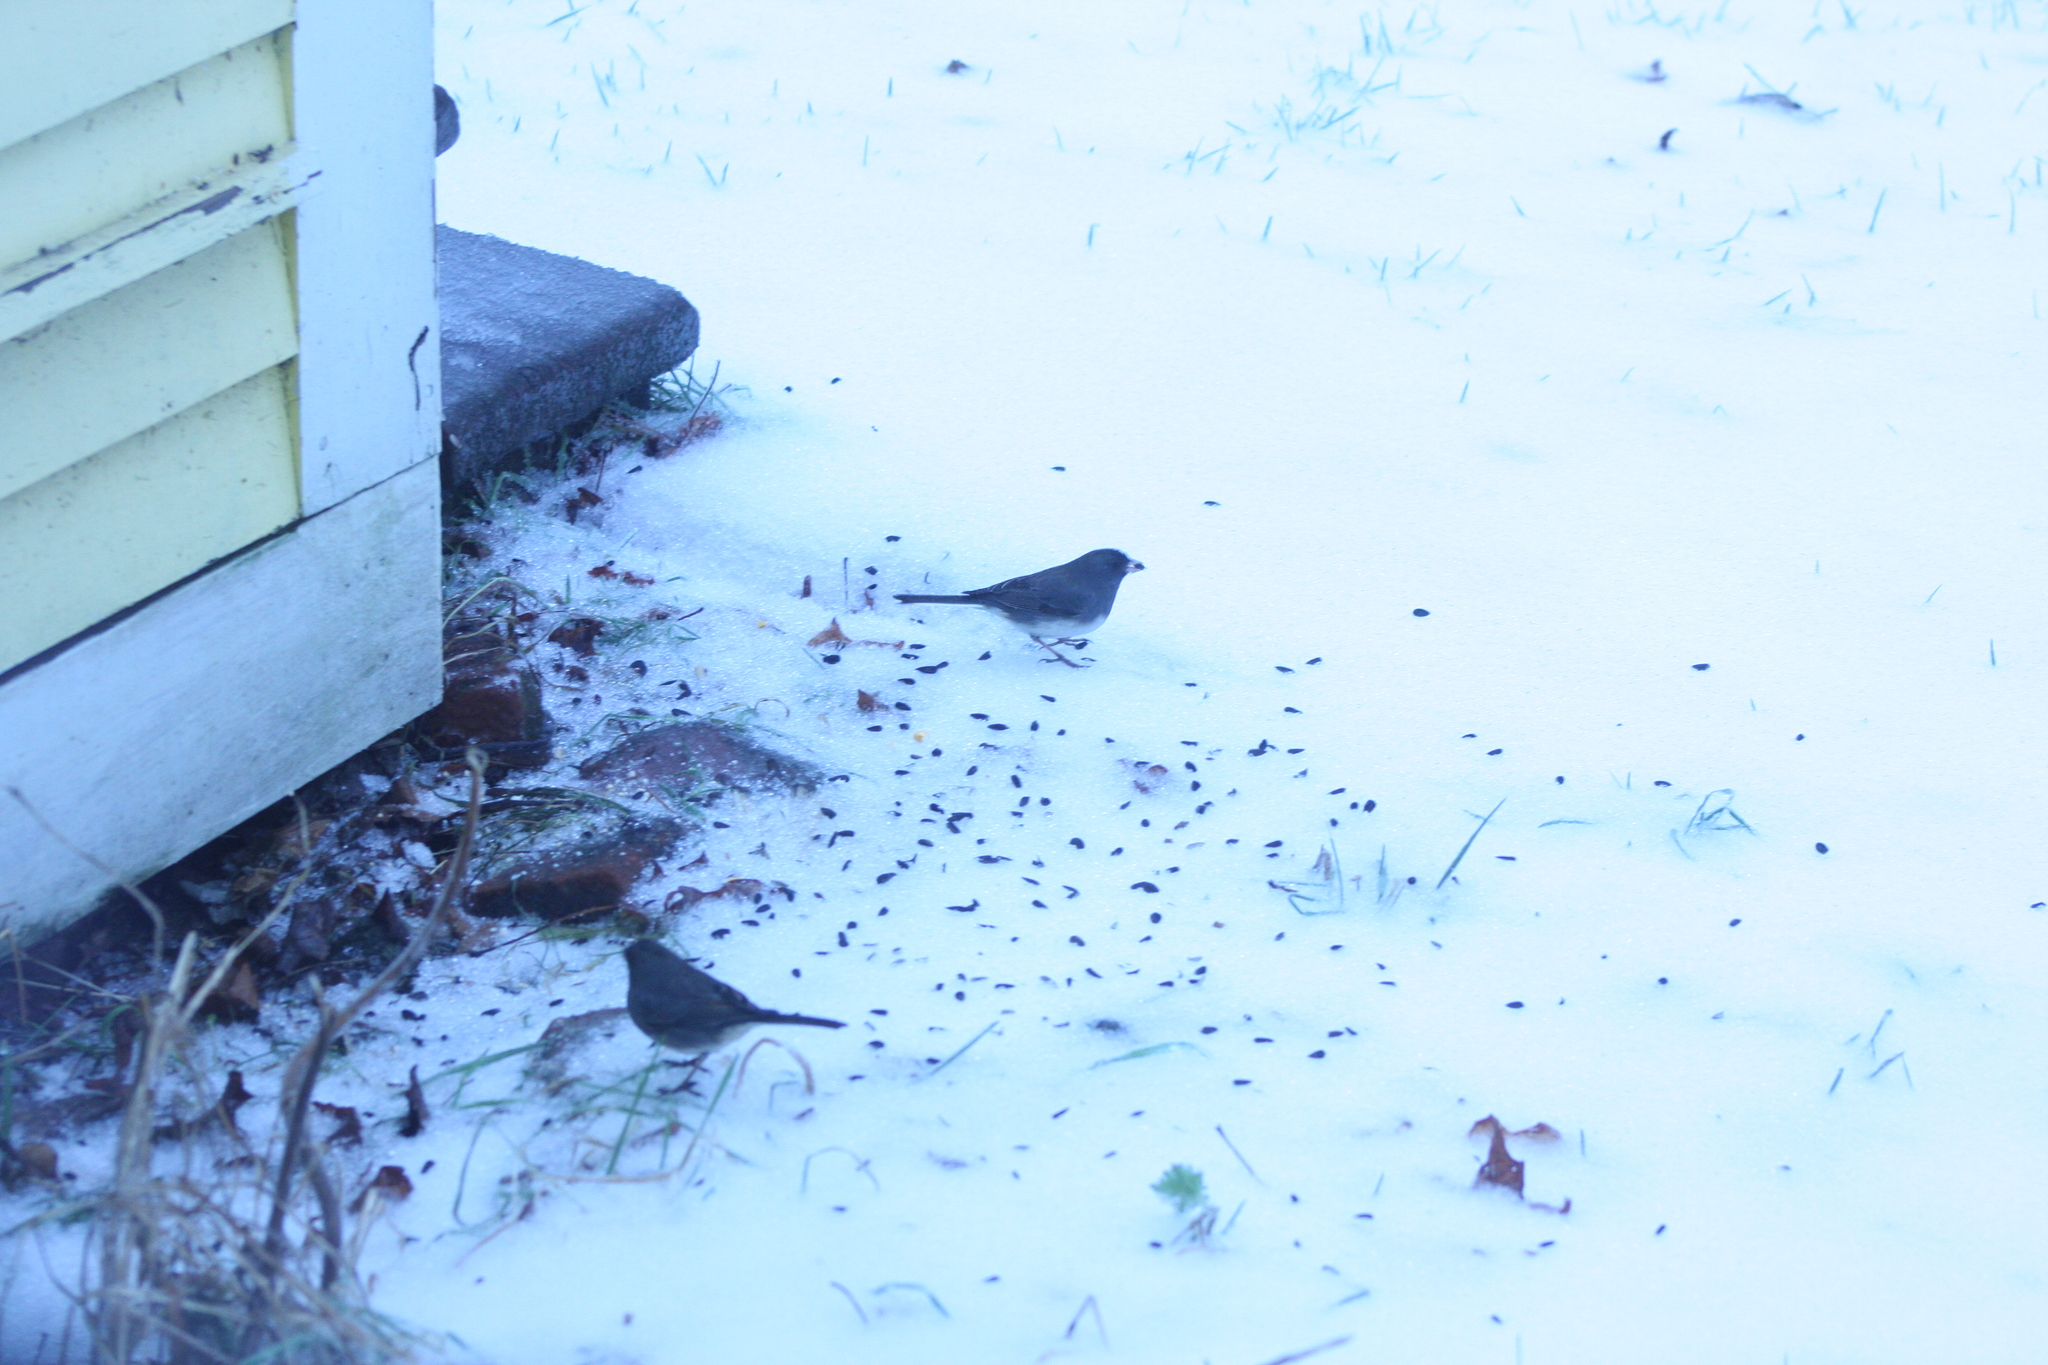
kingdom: Animalia
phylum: Chordata
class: Aves
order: Passeriformes
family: Passerellidae
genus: Junco
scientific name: Junco hyemalis
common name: Dark-eyed junco
